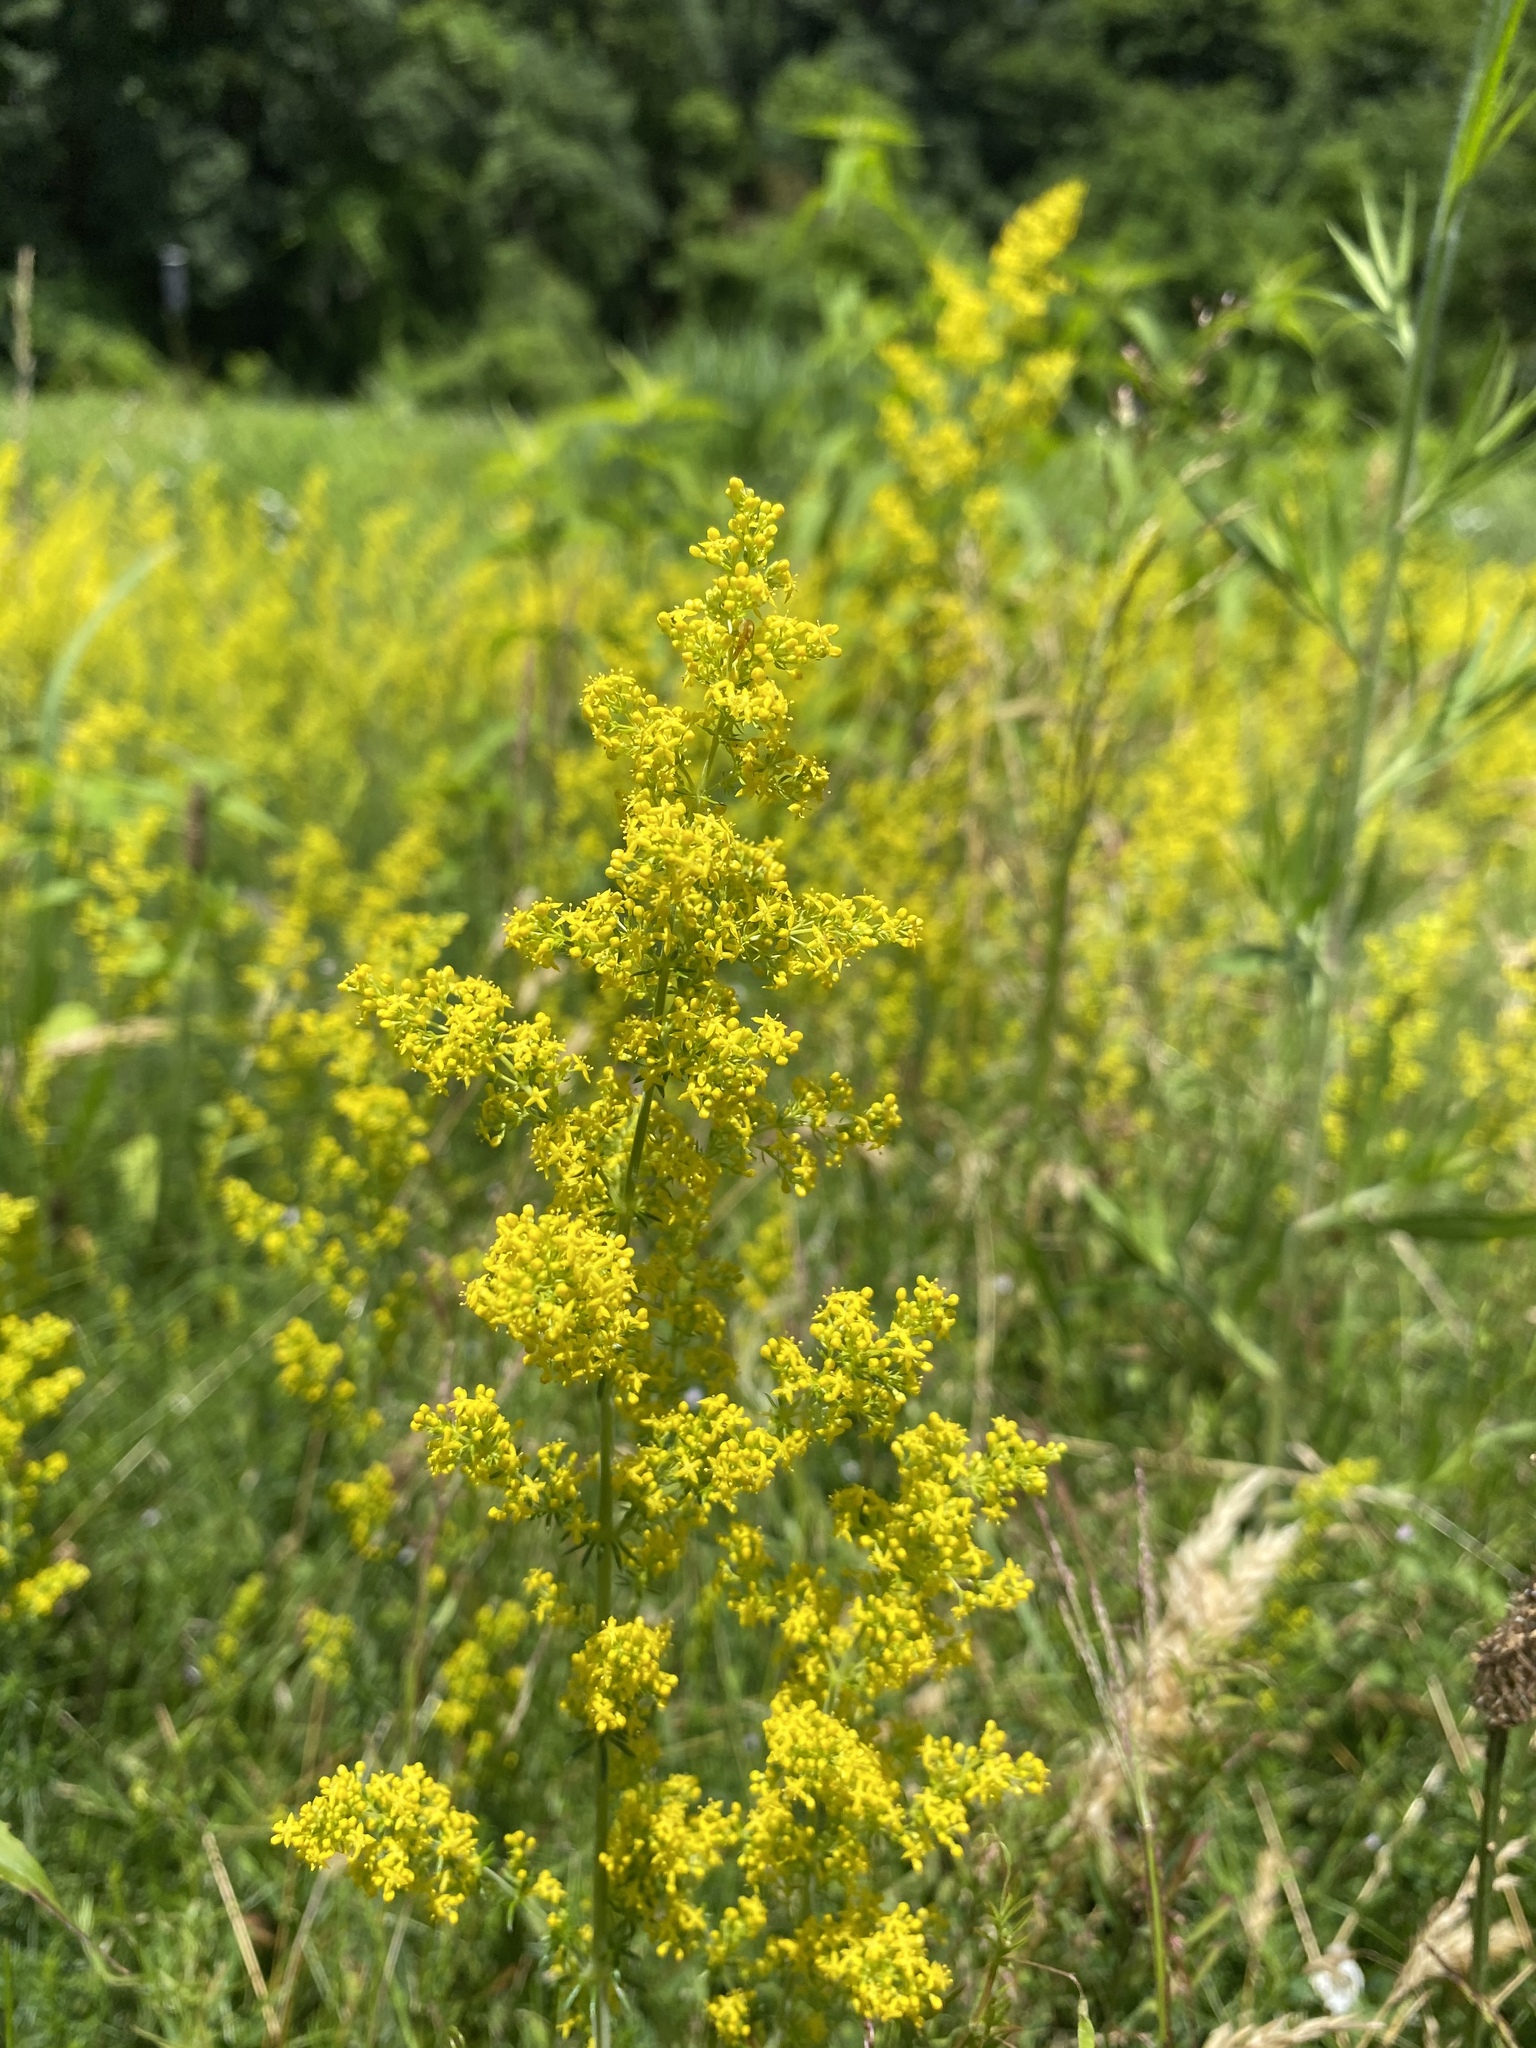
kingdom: Plantae
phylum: Tracheophyta
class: Magnoliopsida
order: Gentianales
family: Rubiaceae
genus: Galium
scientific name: Galium verum
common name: Lady's bedstraw
